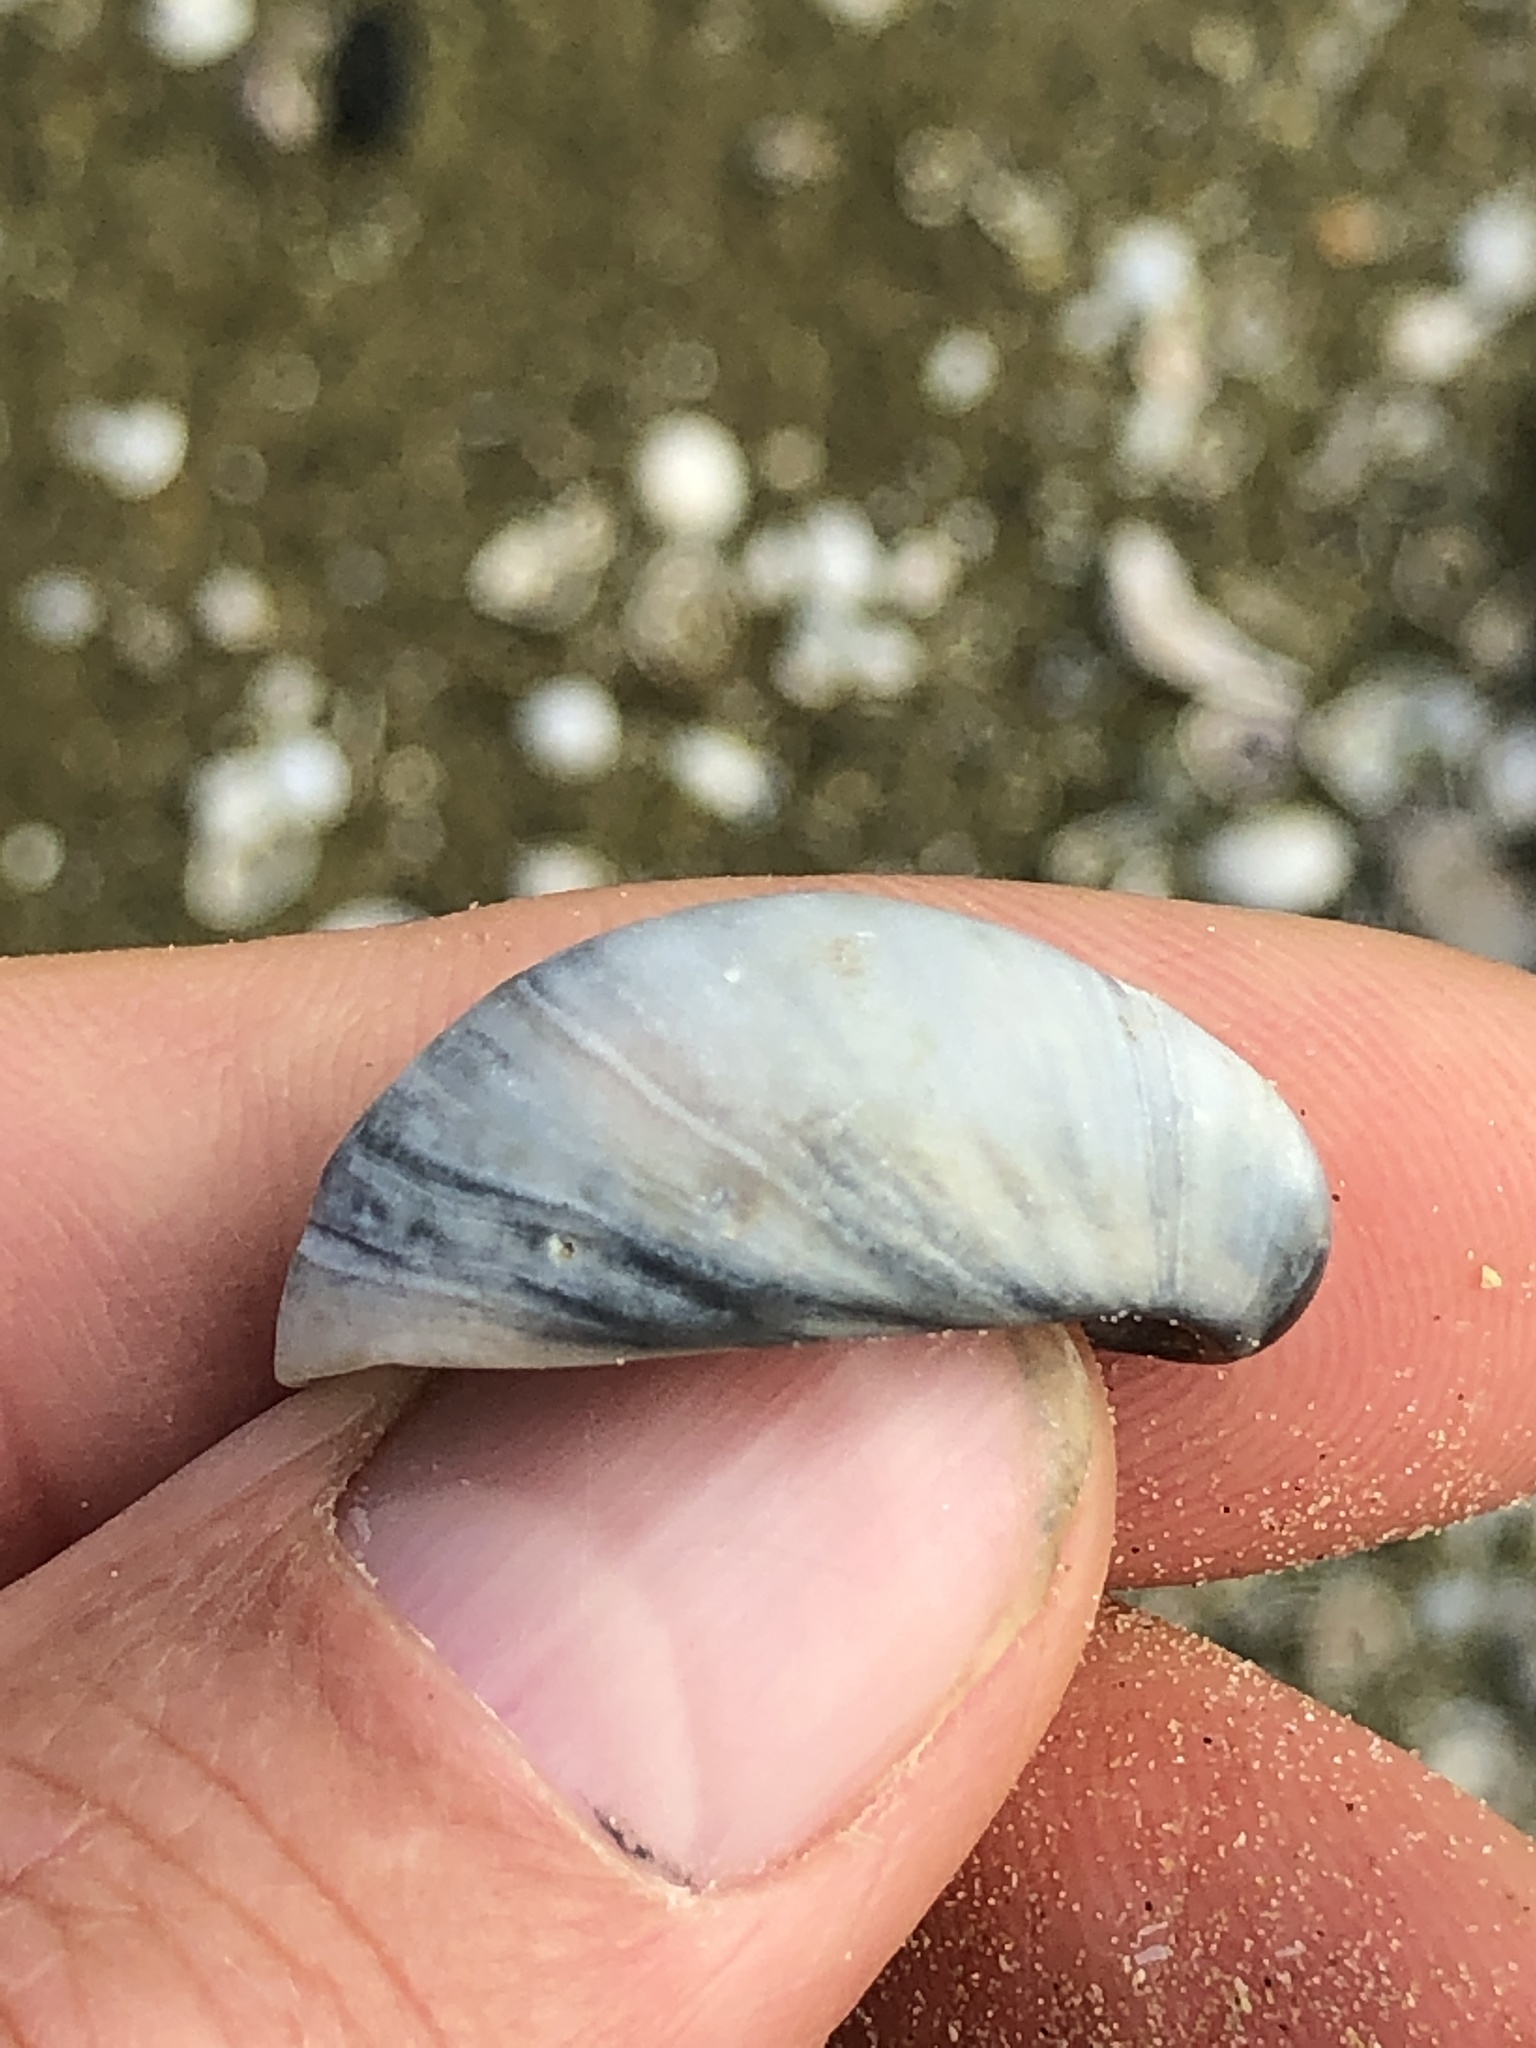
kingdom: Animalia
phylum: Mollusca
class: Gastropoda
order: Littorinimorpha
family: Calyptraeidae
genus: Crepidula
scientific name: Crepidula fornicata
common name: Slipper limpet
